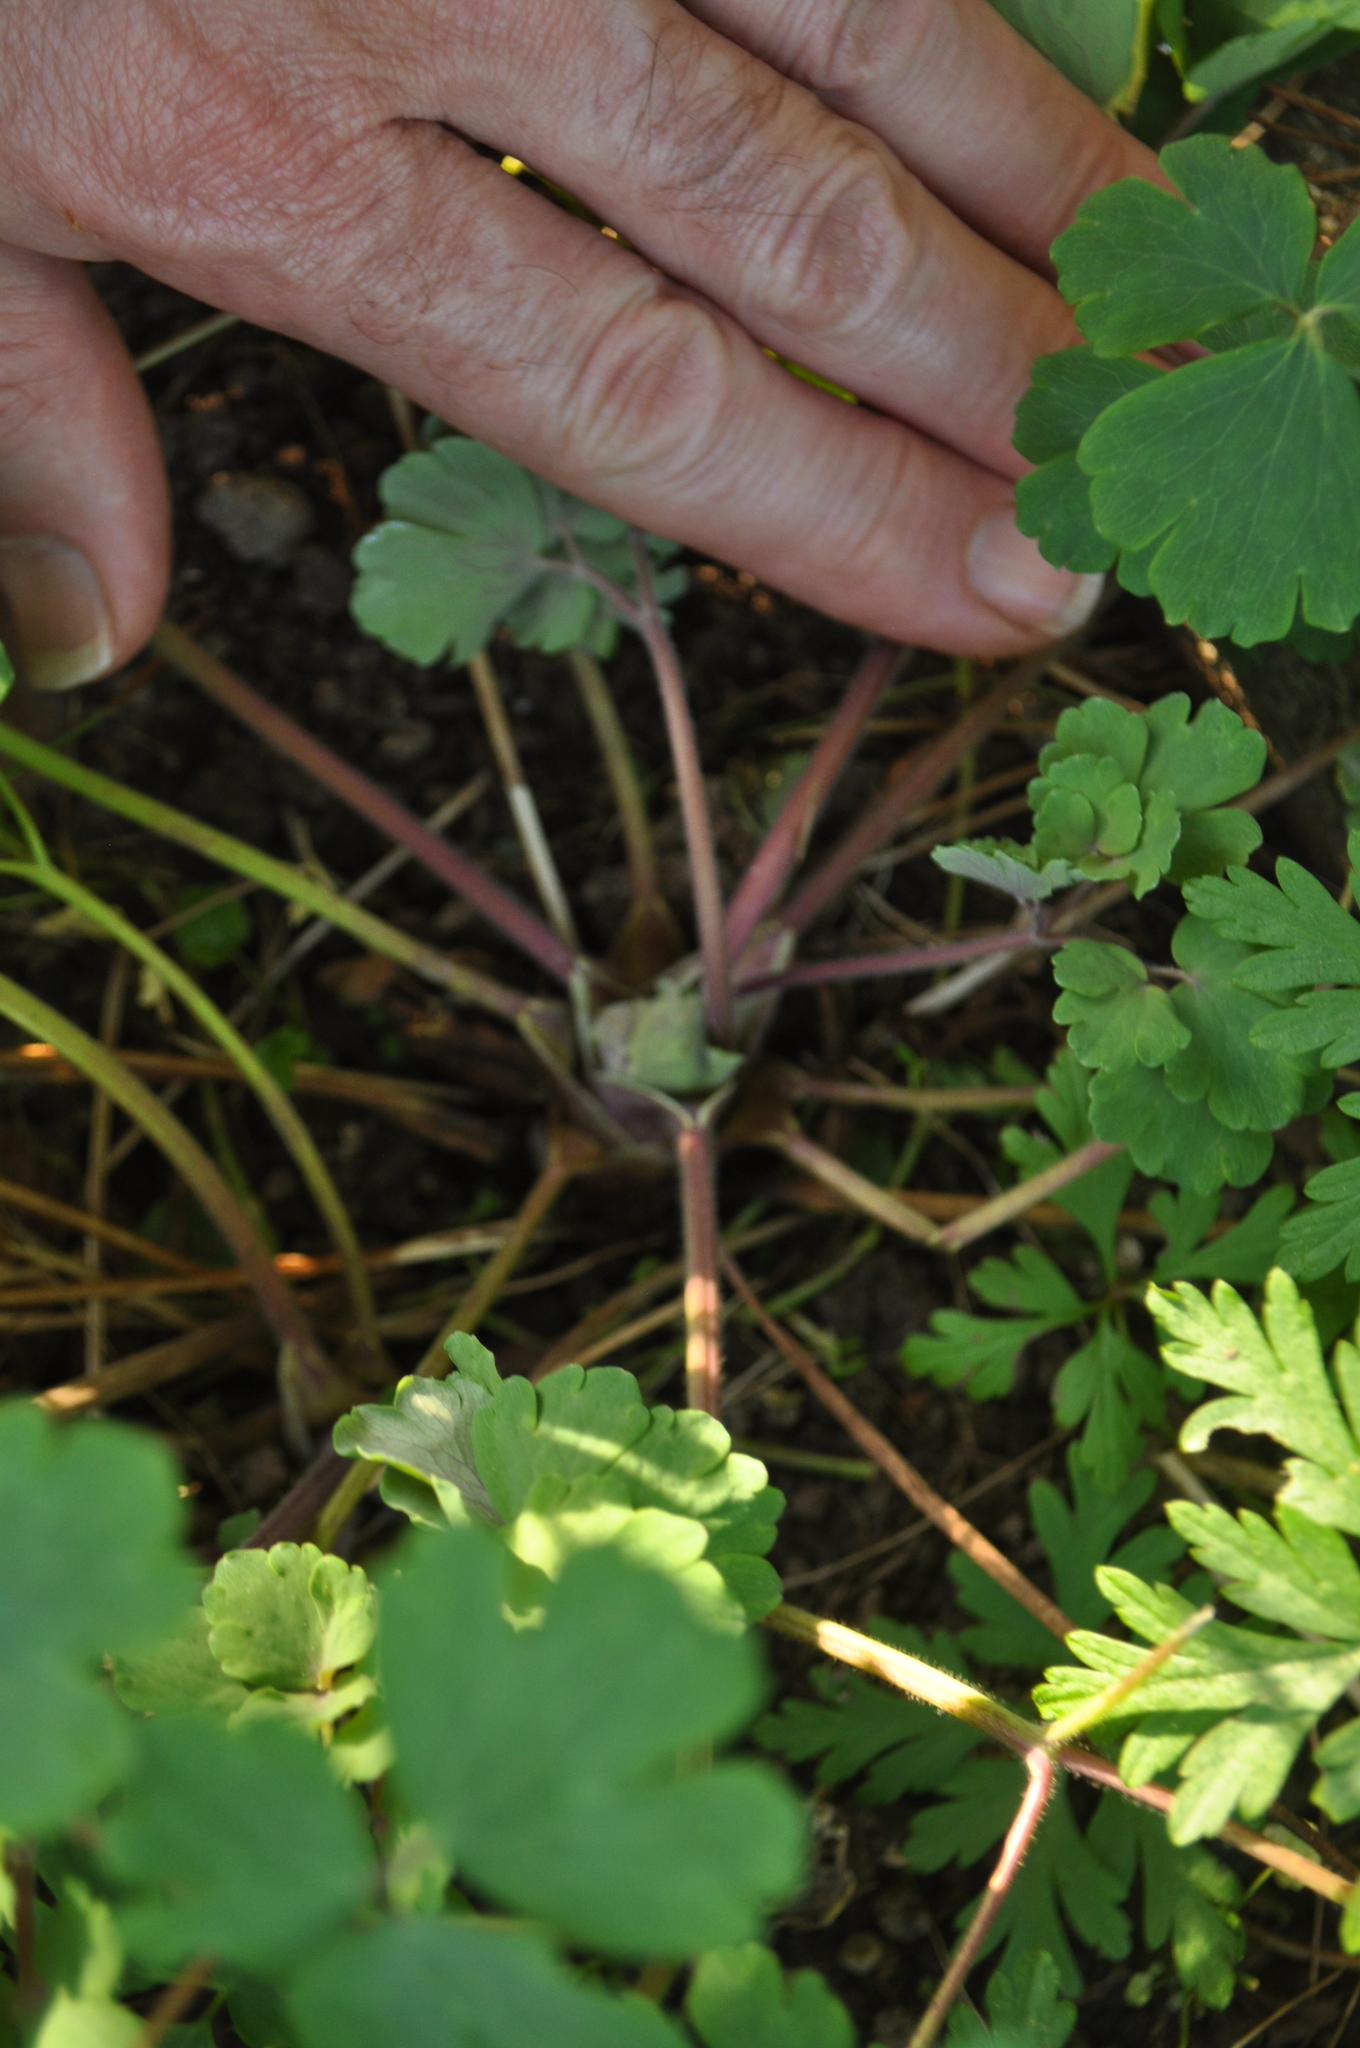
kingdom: Plantae
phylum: Tracheophyta
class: Magnoliopsida
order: Ranunculales
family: Ranunculaceae
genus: Aquilegia
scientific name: Aquilegia vulgaris
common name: Columbine
